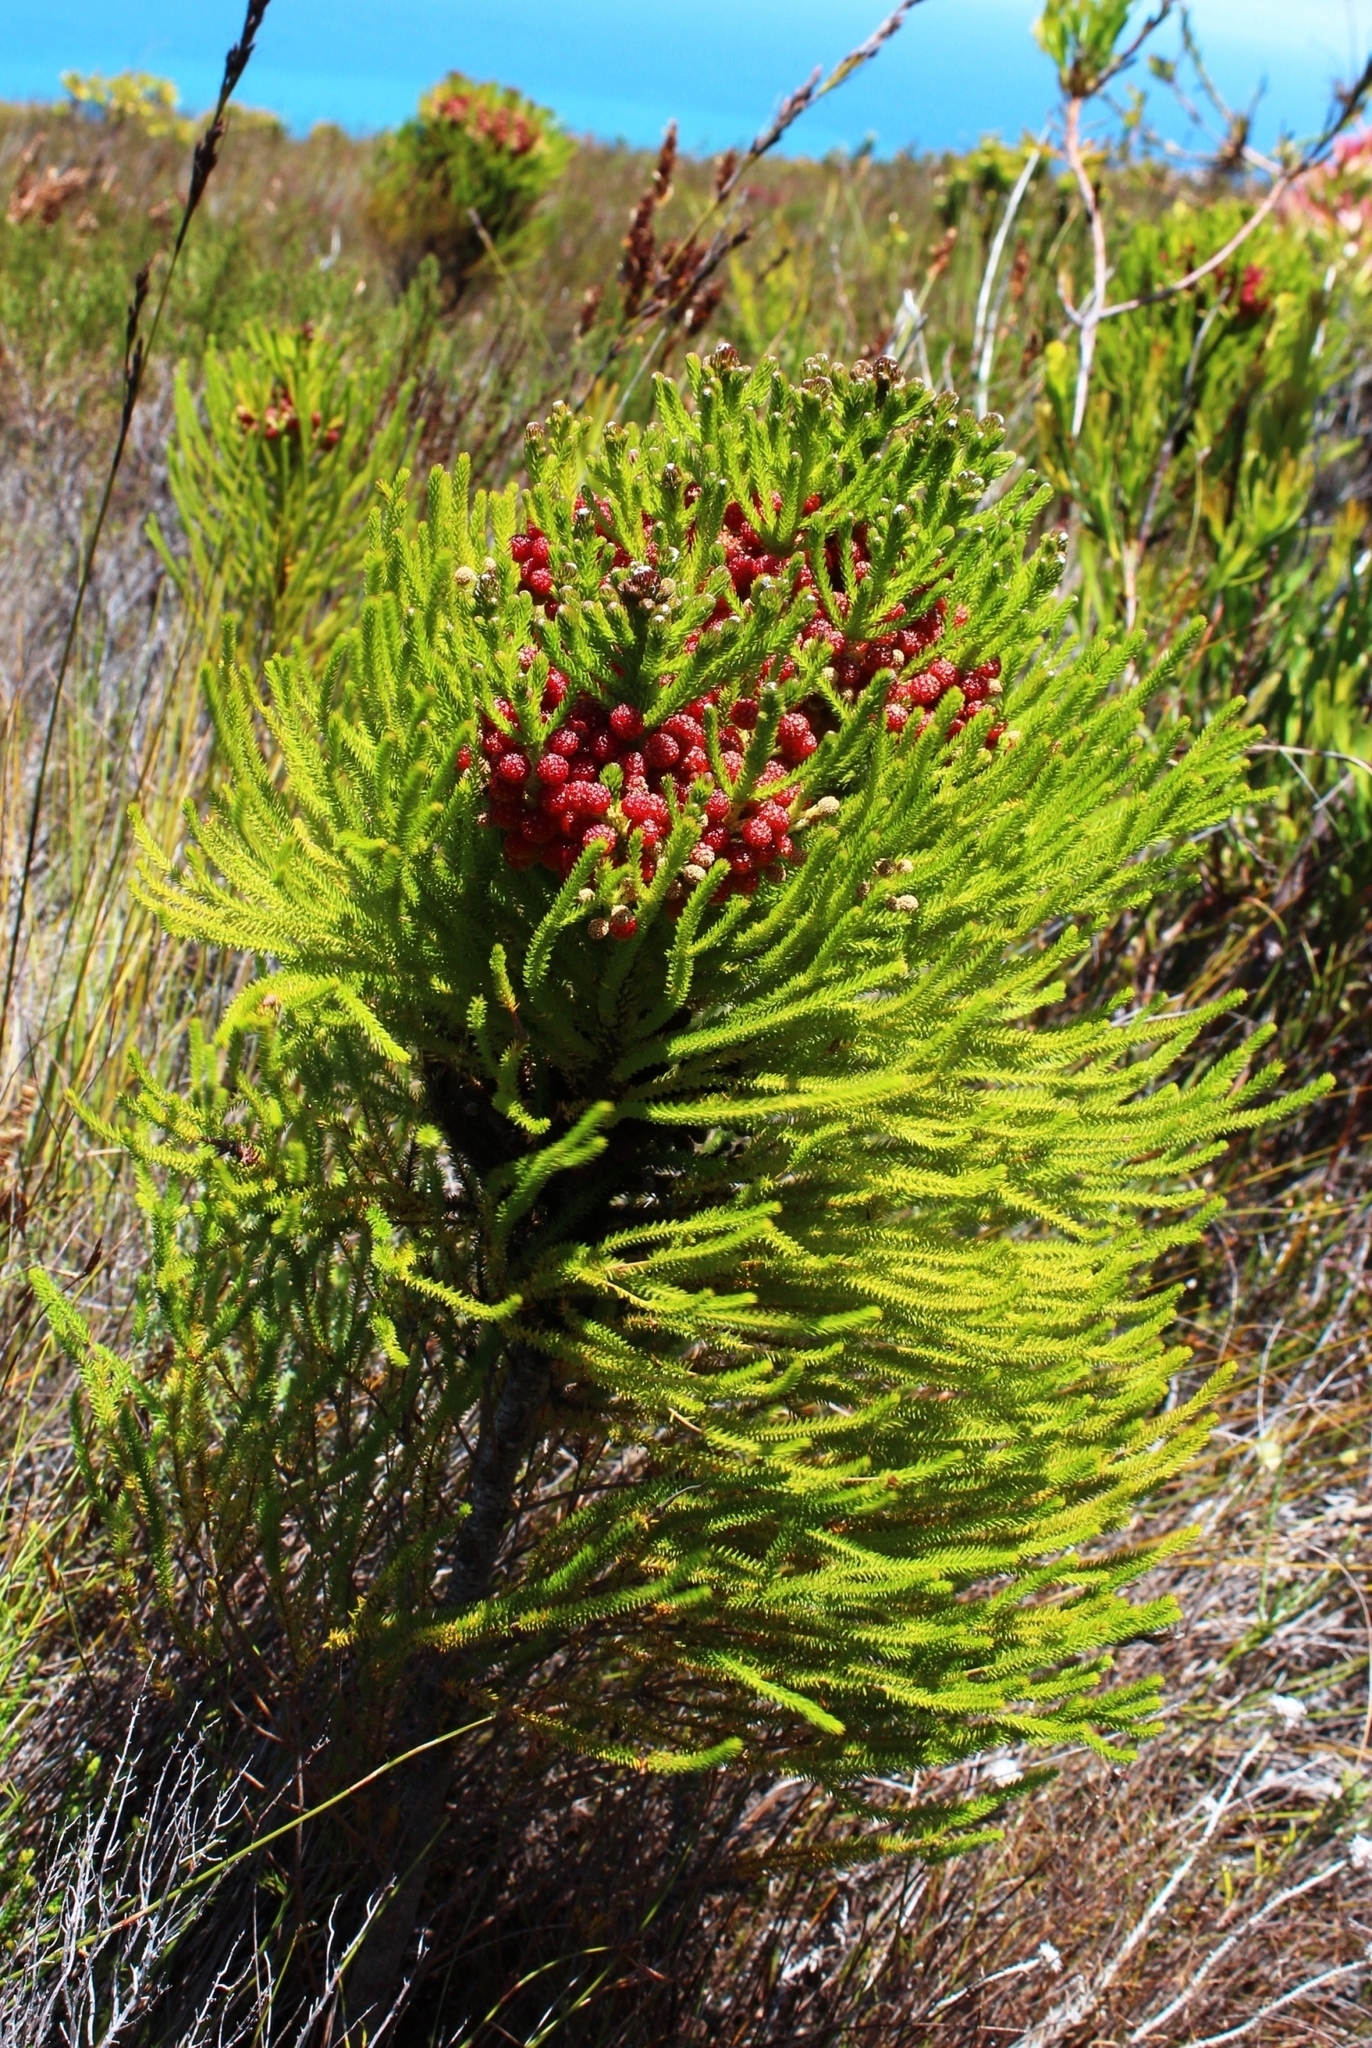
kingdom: Plantae
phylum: Tracheophyta
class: Magnoliopsida
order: Bruniales
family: Bruniaceae
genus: Berzelia
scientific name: Berzelia alopecurioides
